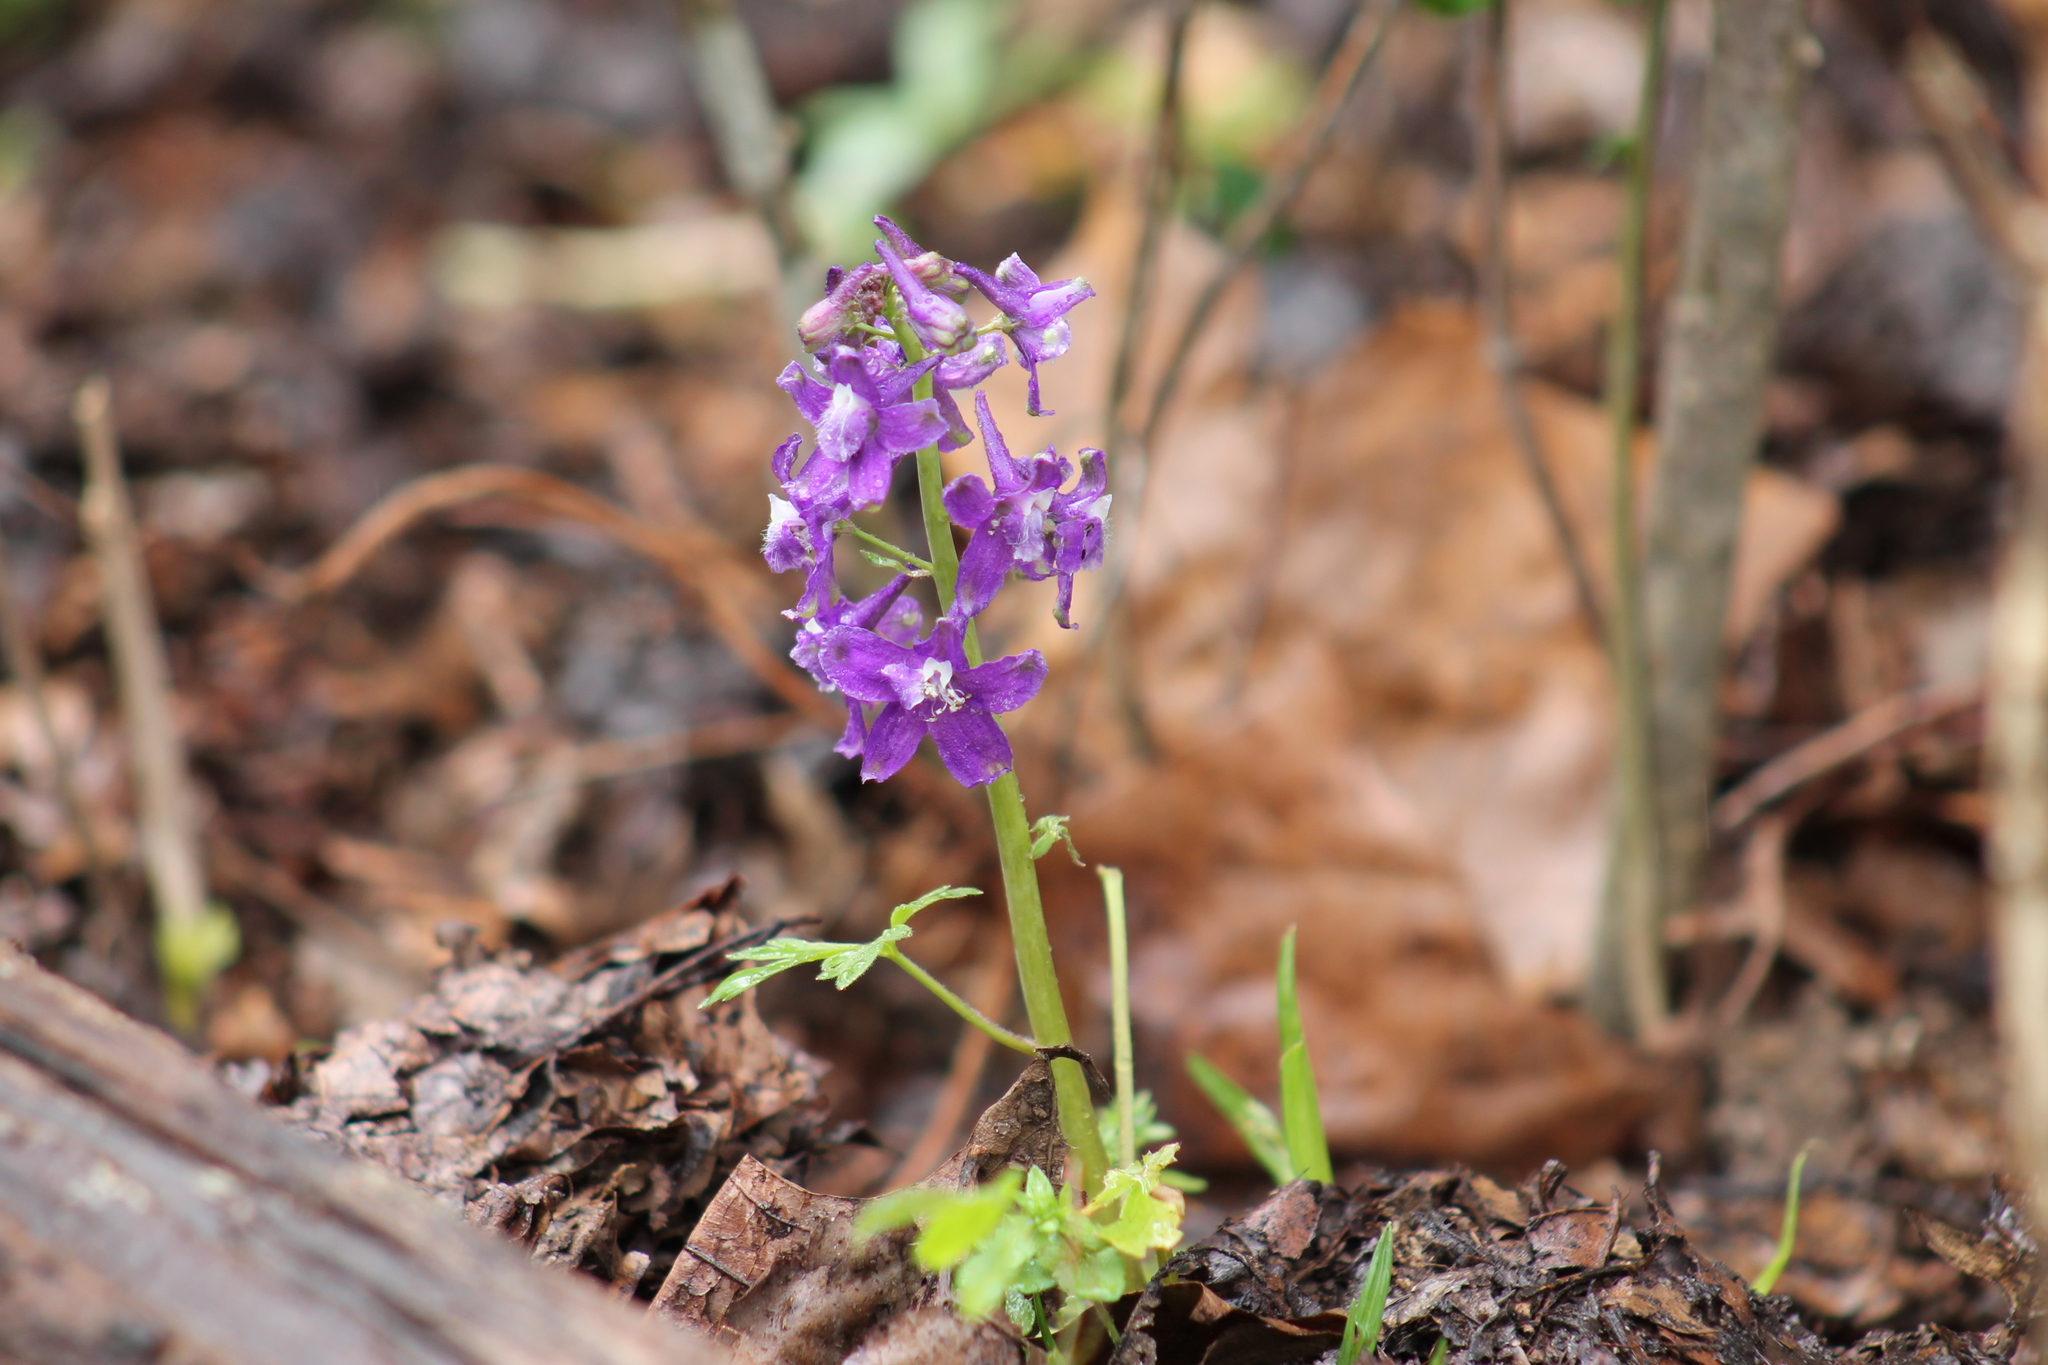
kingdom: Plantae
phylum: Tracheophyta
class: Magnoliopsida
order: Ranunculales
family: Ranunculaceae
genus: Delphinium
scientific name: Delphinium tricorne
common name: Dwarf larkspur
